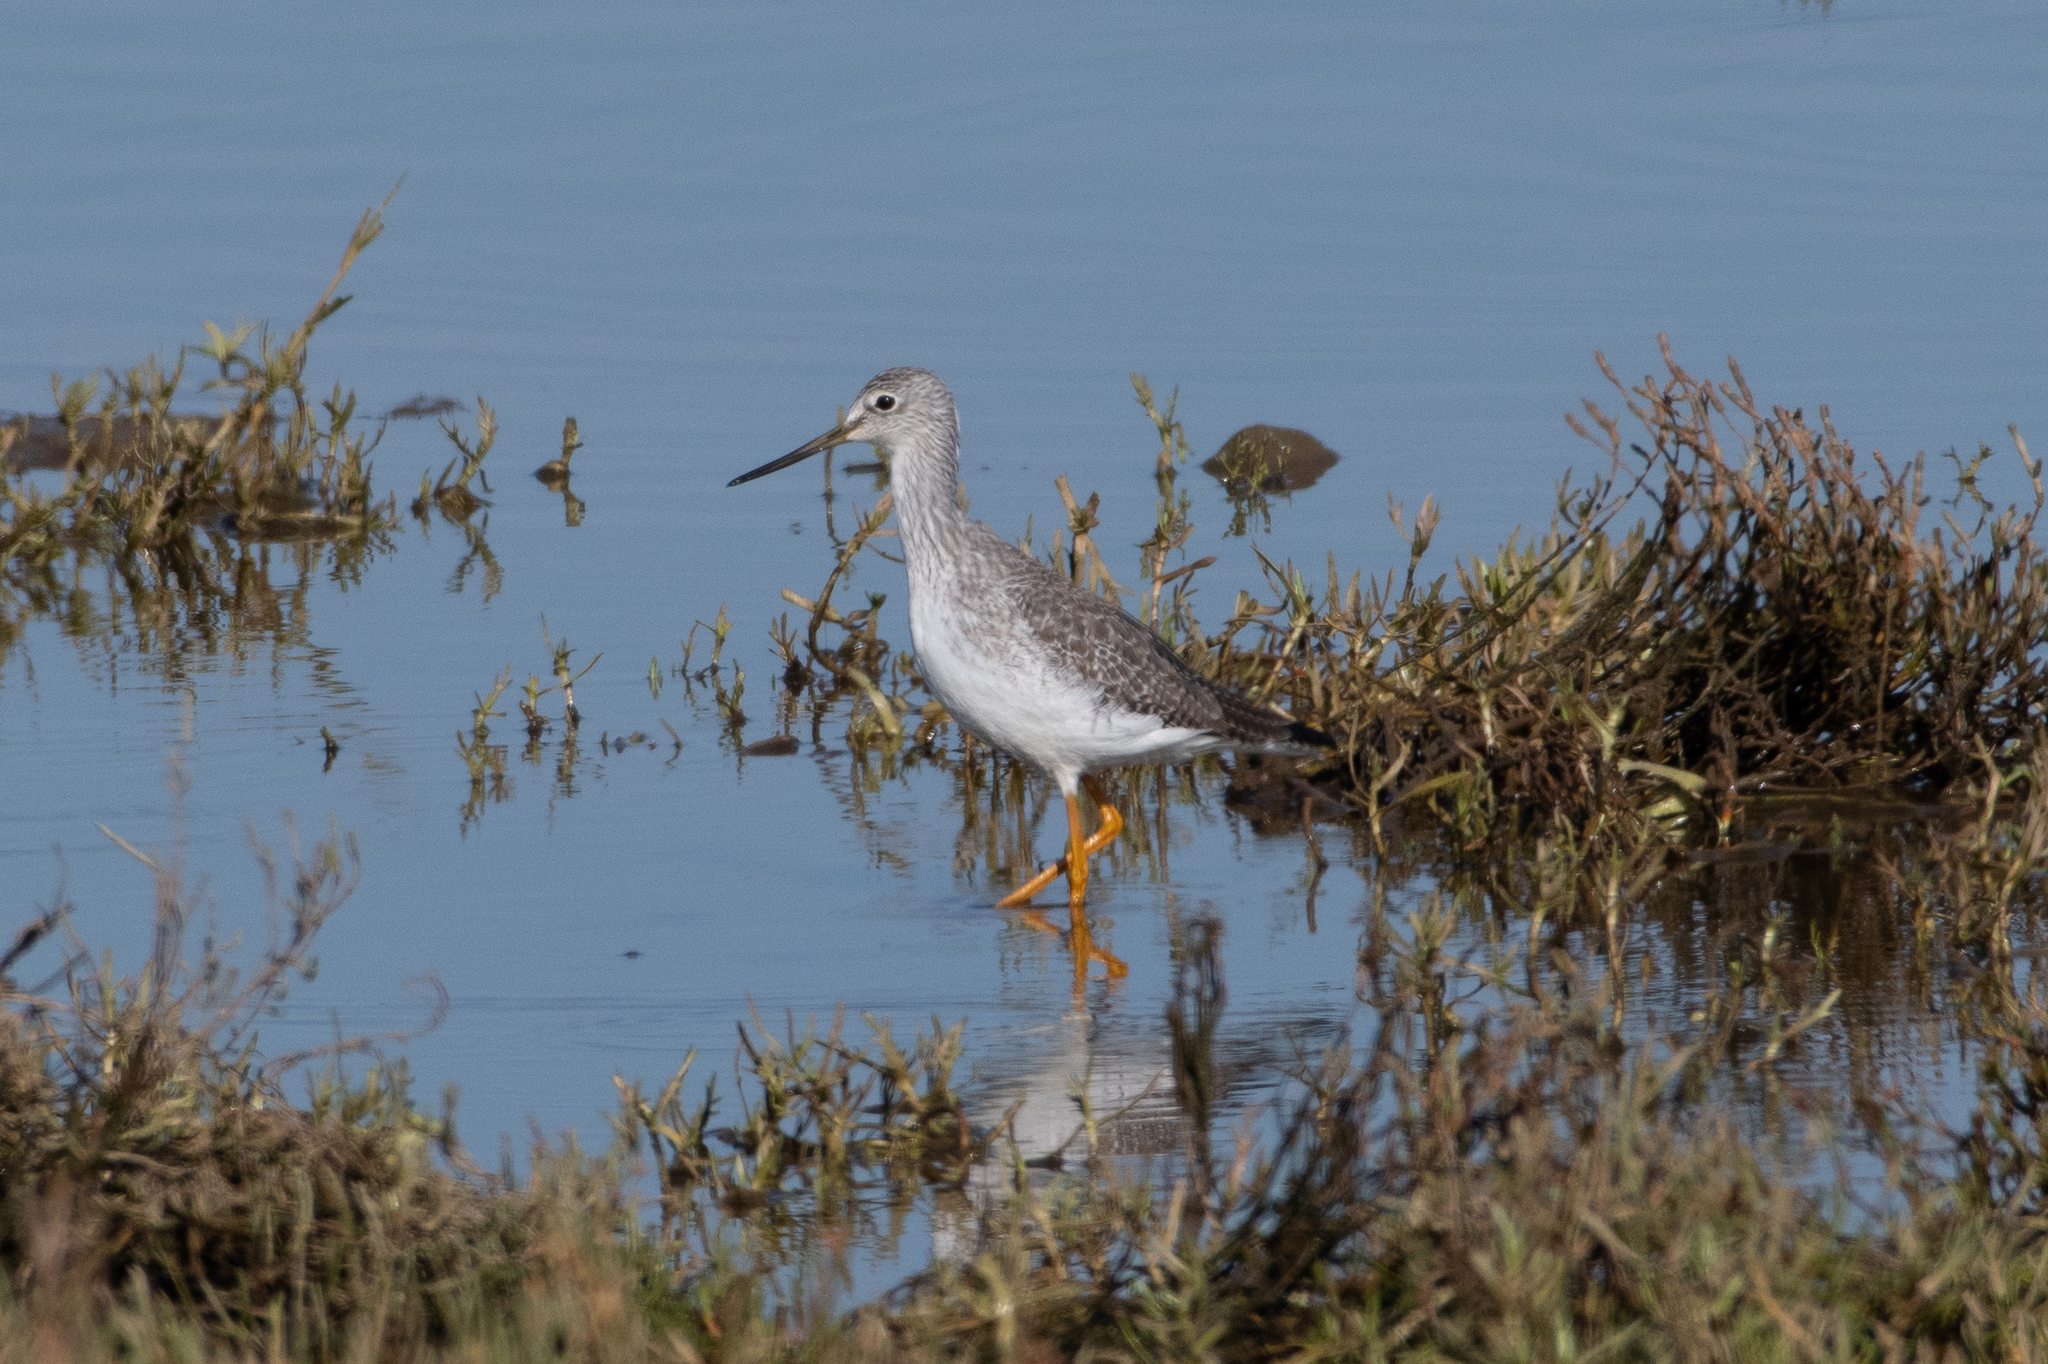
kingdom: Animalia
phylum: Chordata
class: Aves
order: Charadriiformes
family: Scolopacidae
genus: Tringa
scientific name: Tringa melanoleuca
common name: Greater yellowlegs
